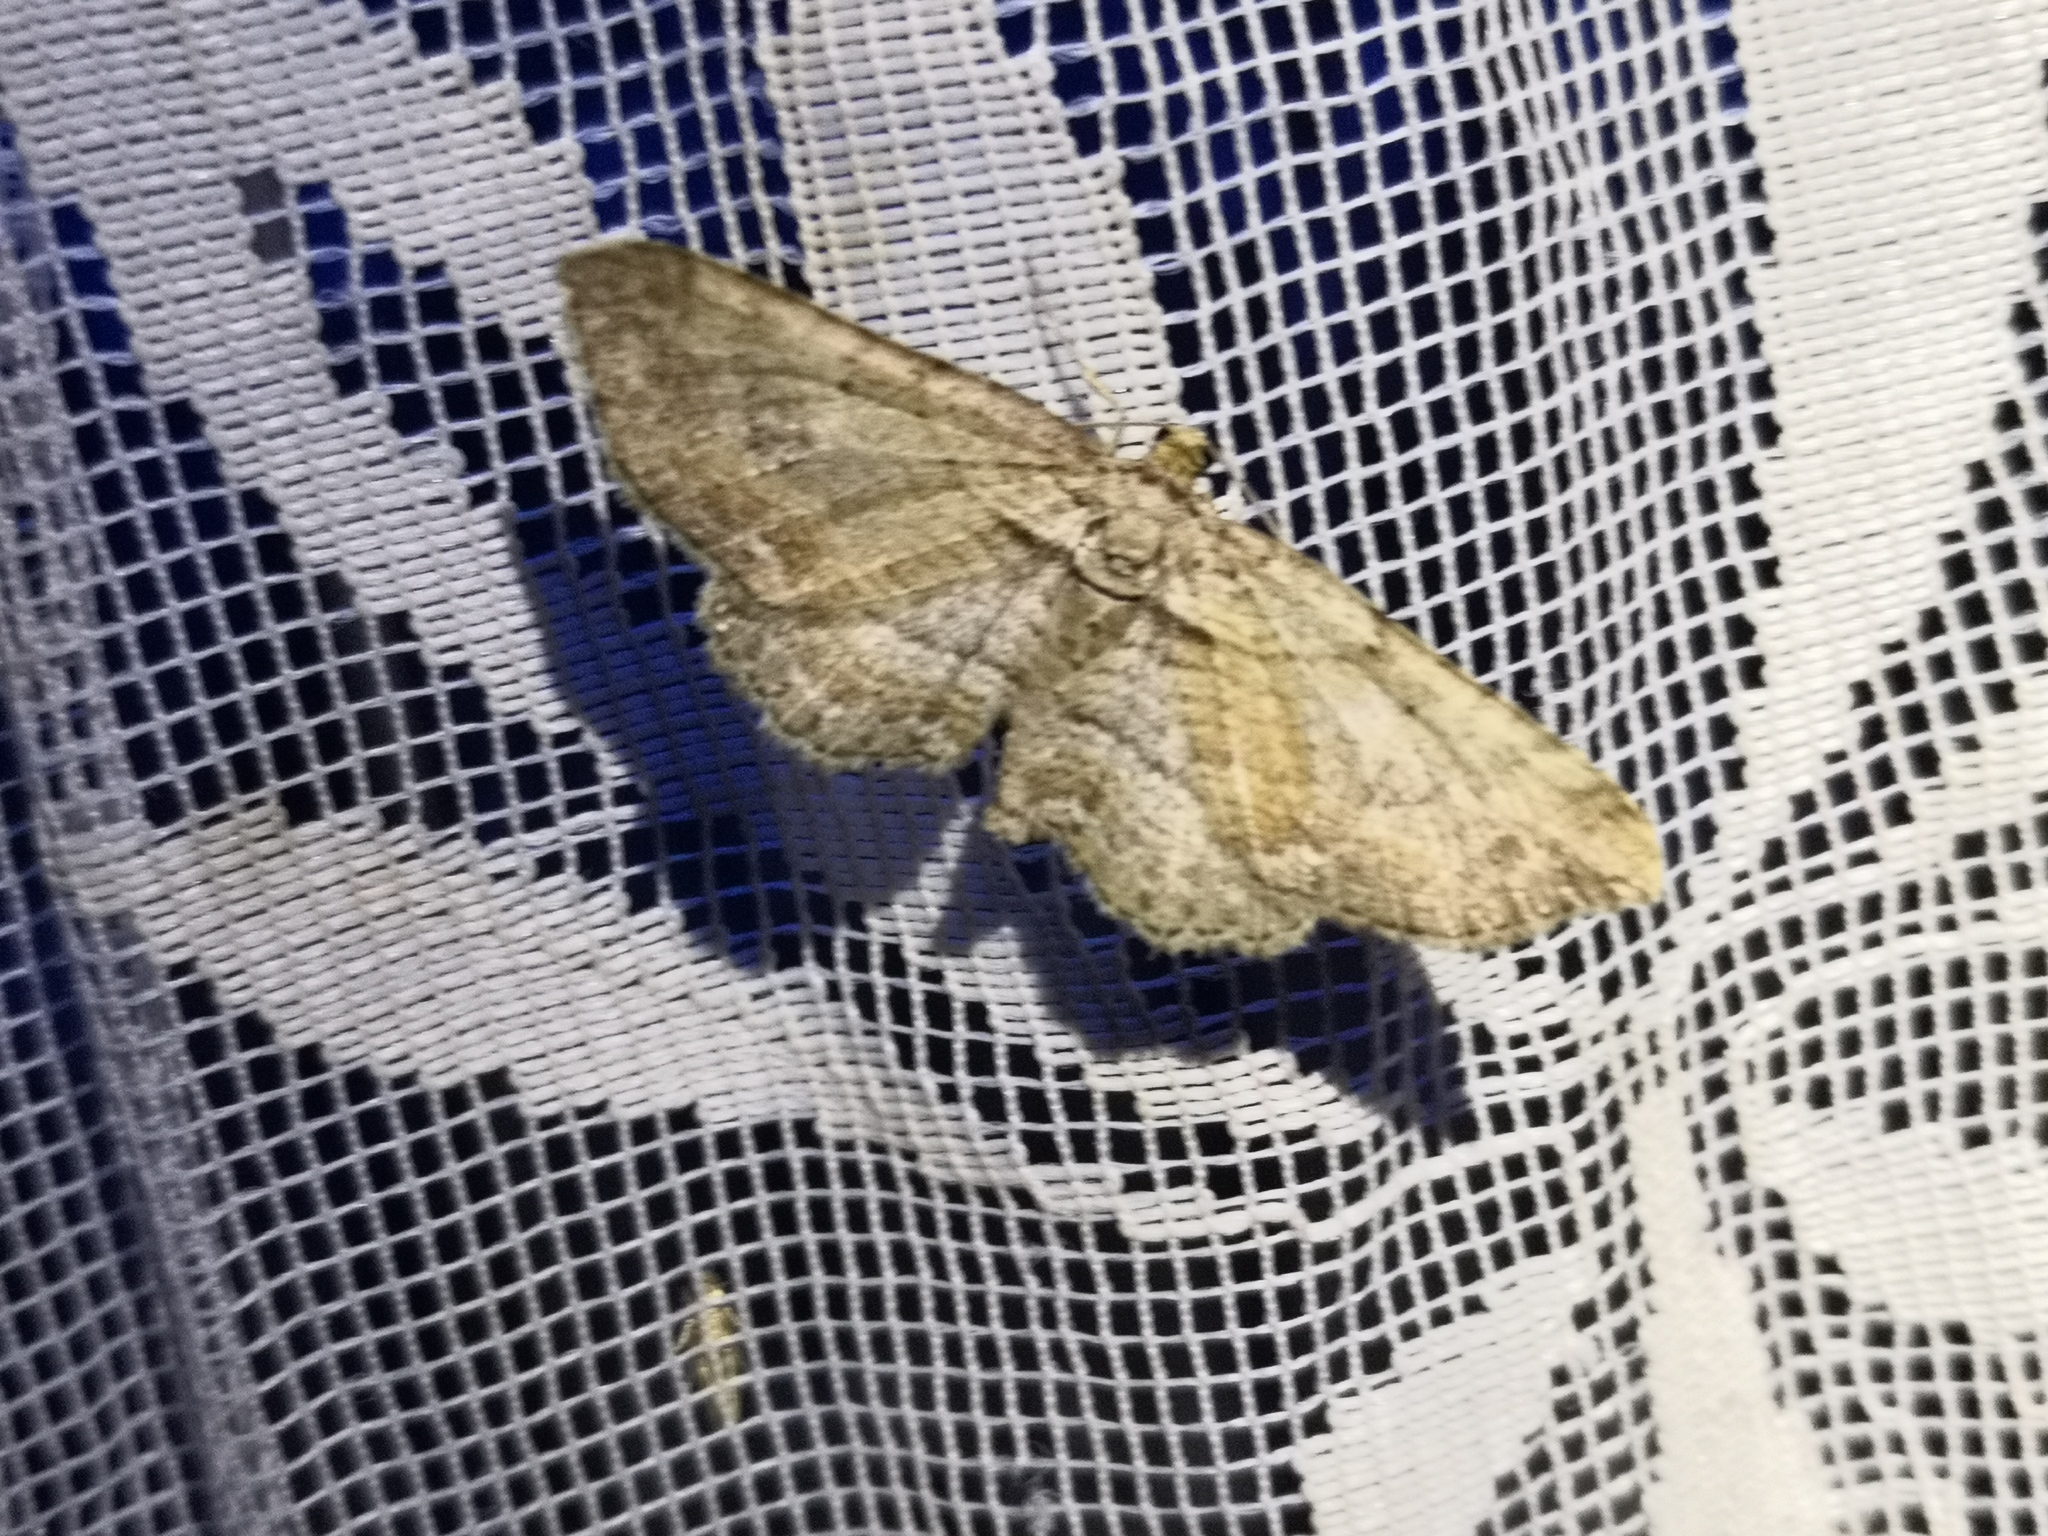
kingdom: Animalia
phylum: Arthropoda
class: Insecta
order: Lepidoptera
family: Geometridae
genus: Horisme
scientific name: Horisme tersata
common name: Fern
